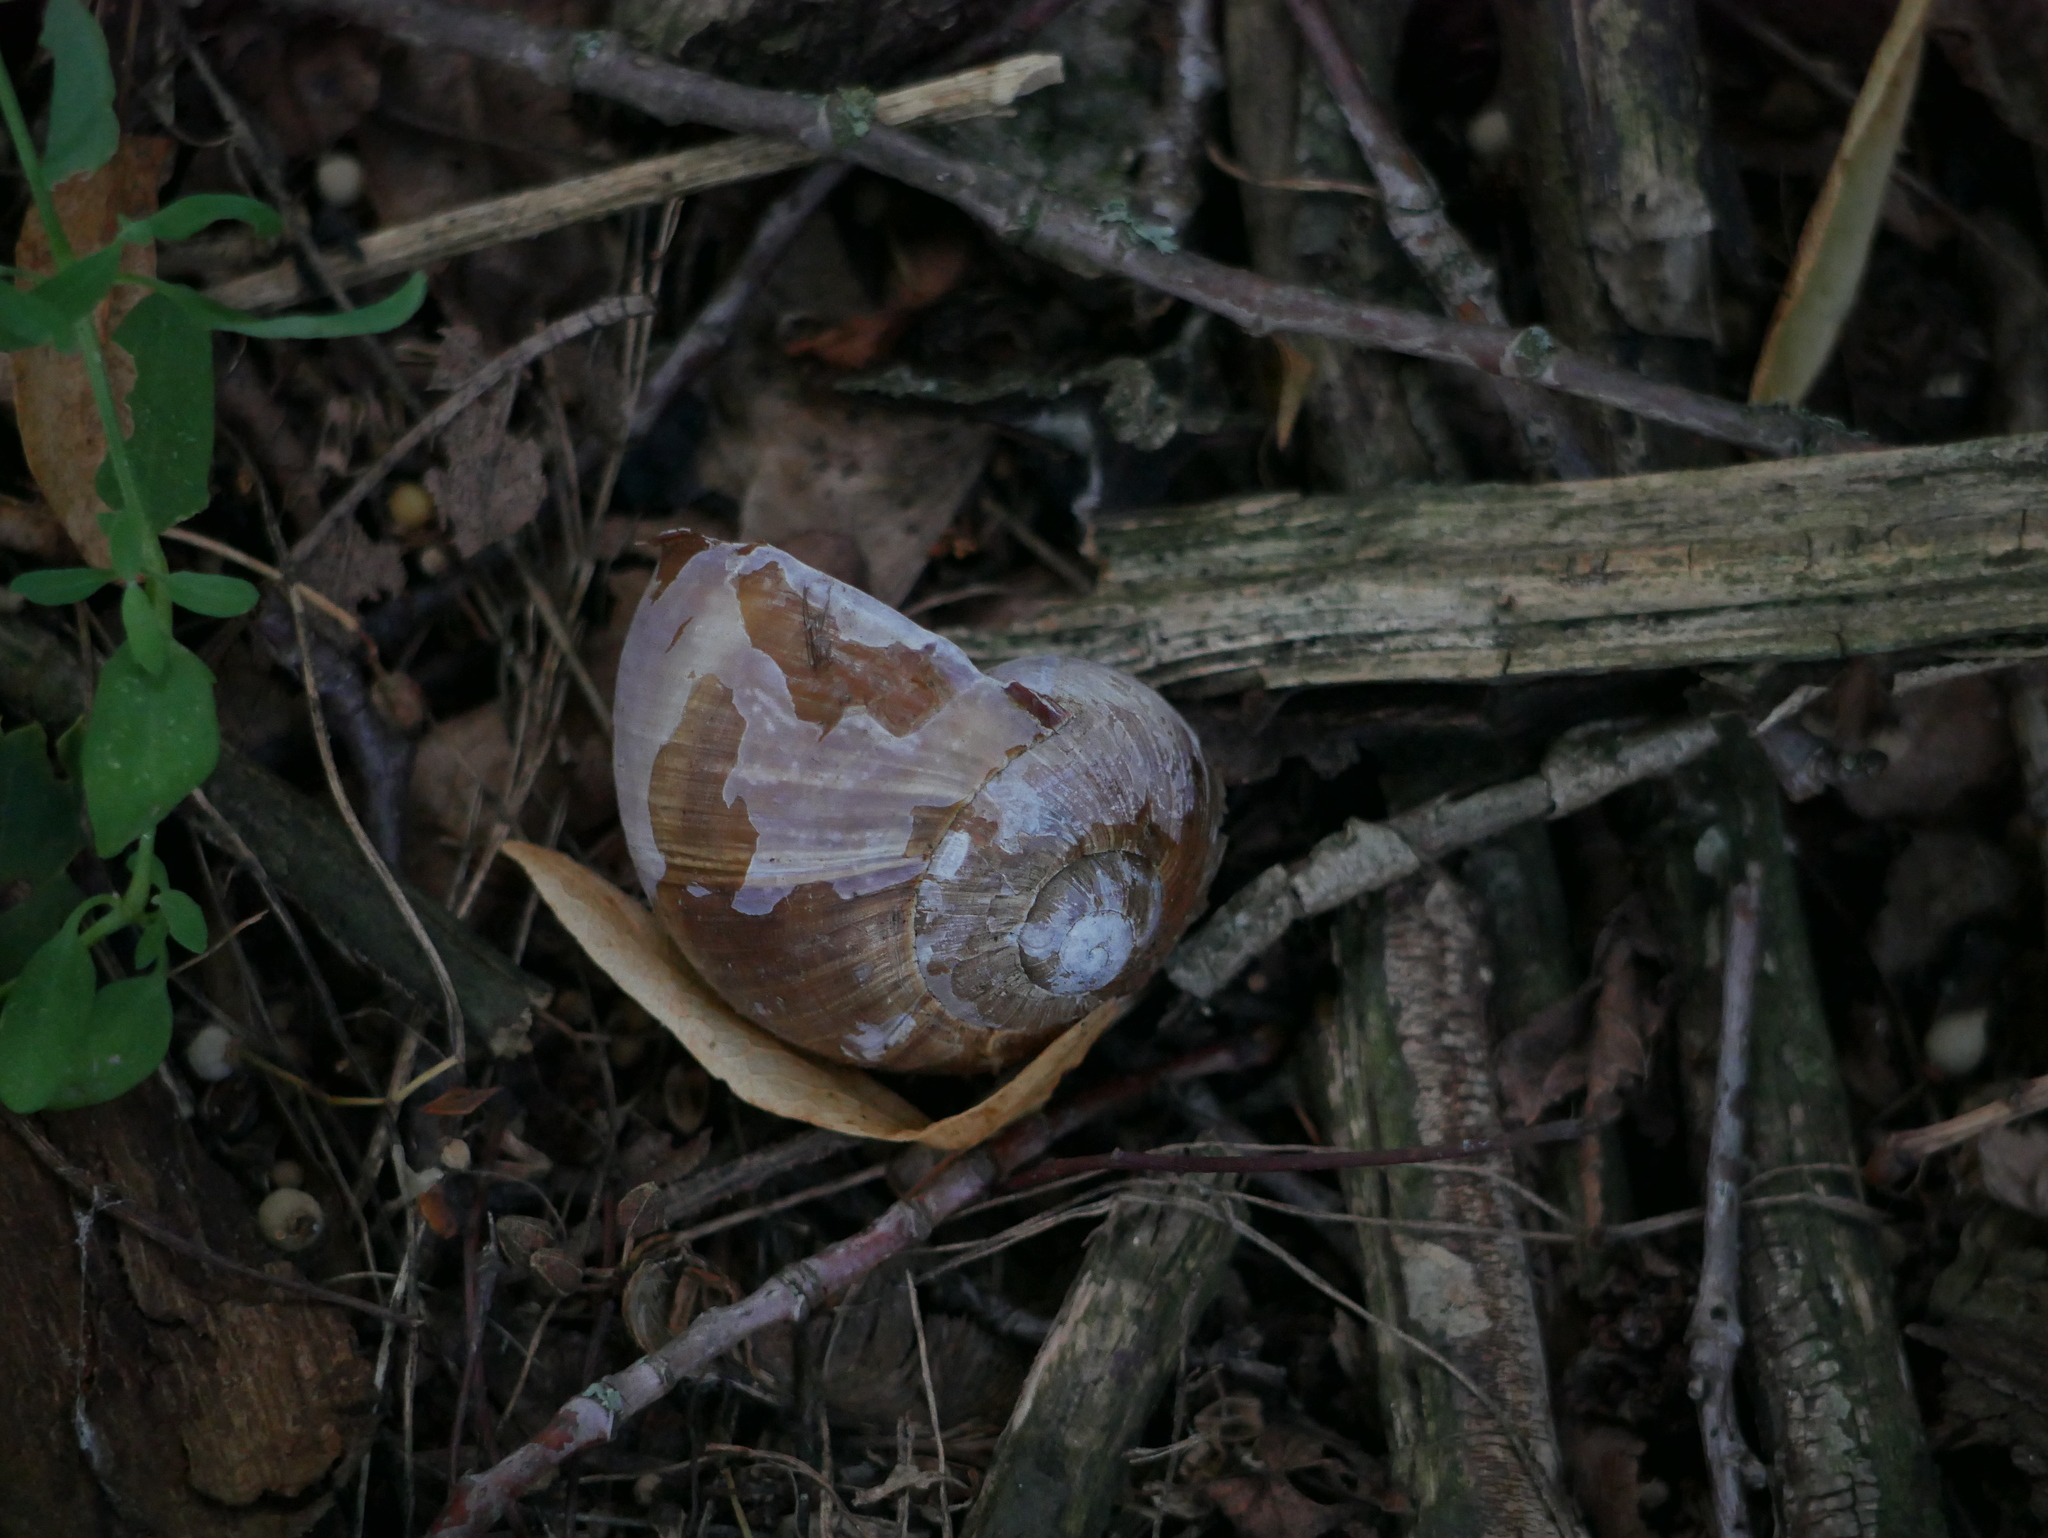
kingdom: Animalia
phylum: Mollusca
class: Gastropoda
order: Stylommatophora
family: Helicidae
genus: Helix
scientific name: Helix pomatia
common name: Roman snail
